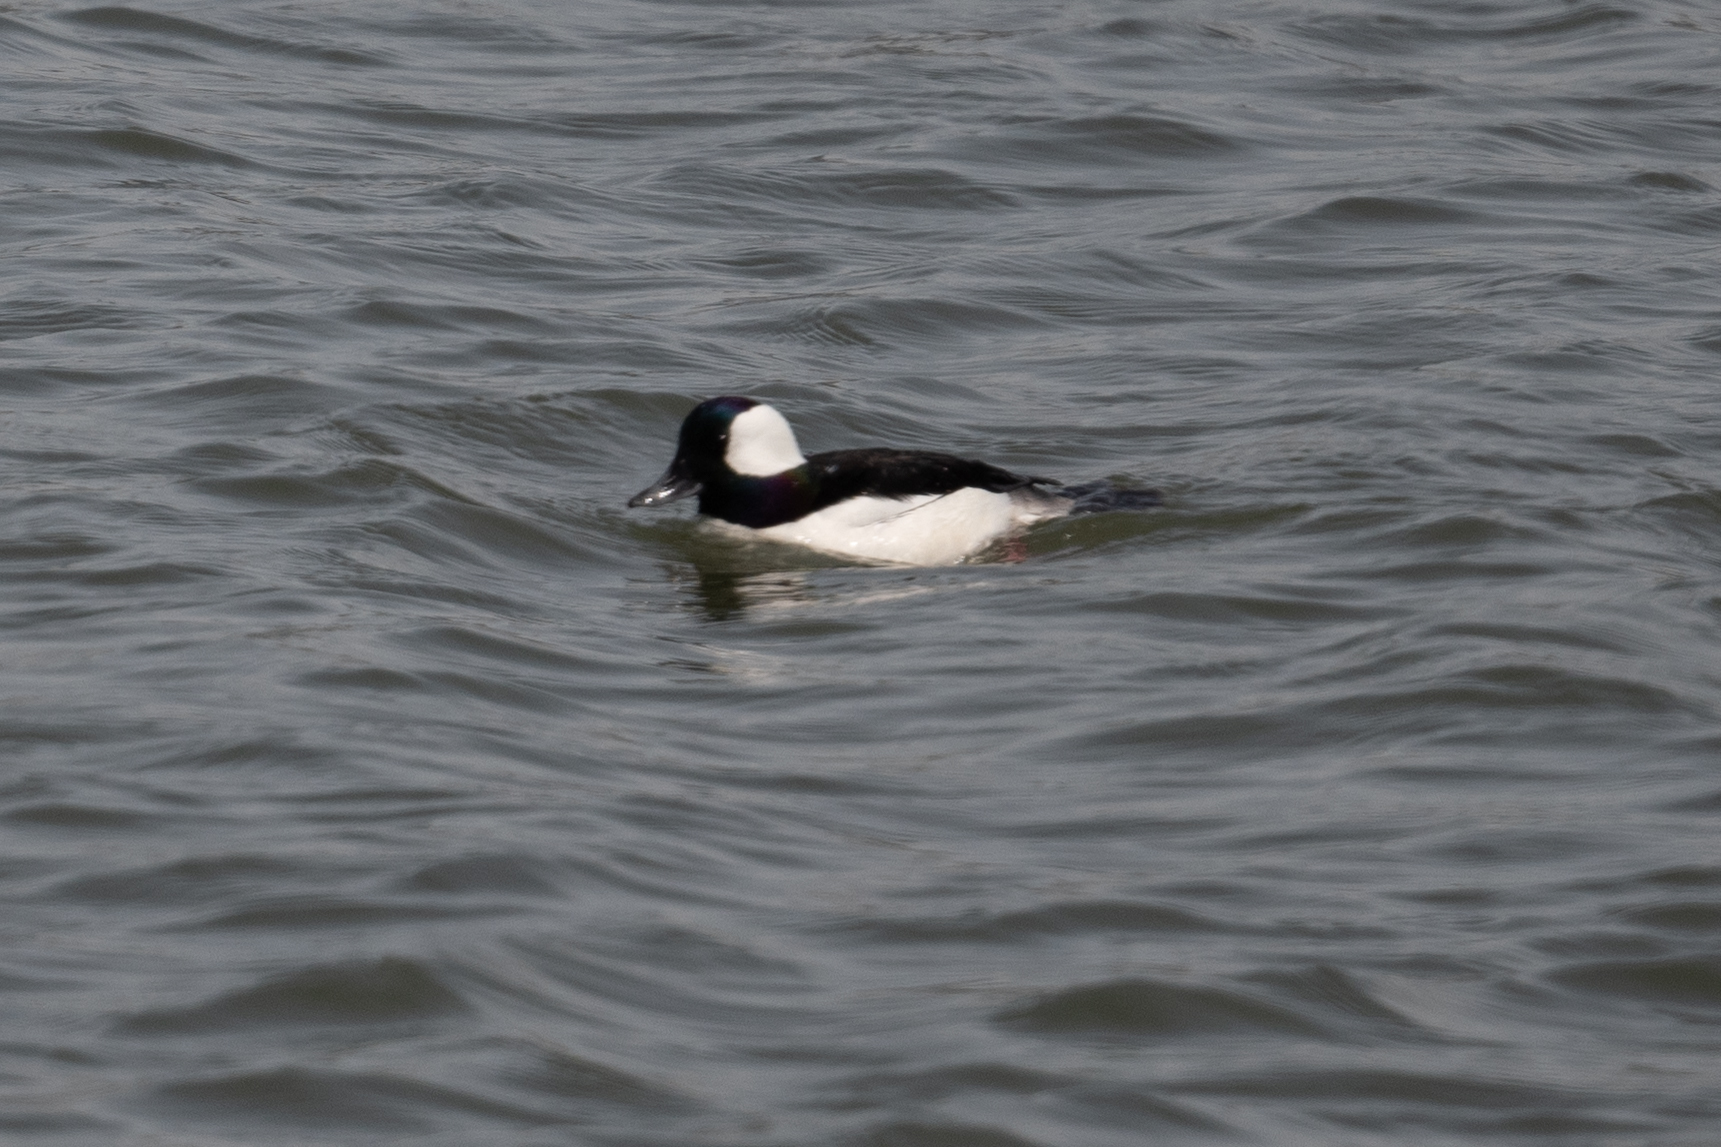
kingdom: Animalia
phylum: Chordata
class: Aves
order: Anseriformes
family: Anatidae
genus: Bucephala
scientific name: Bucephala albeola
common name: Bufflehead
